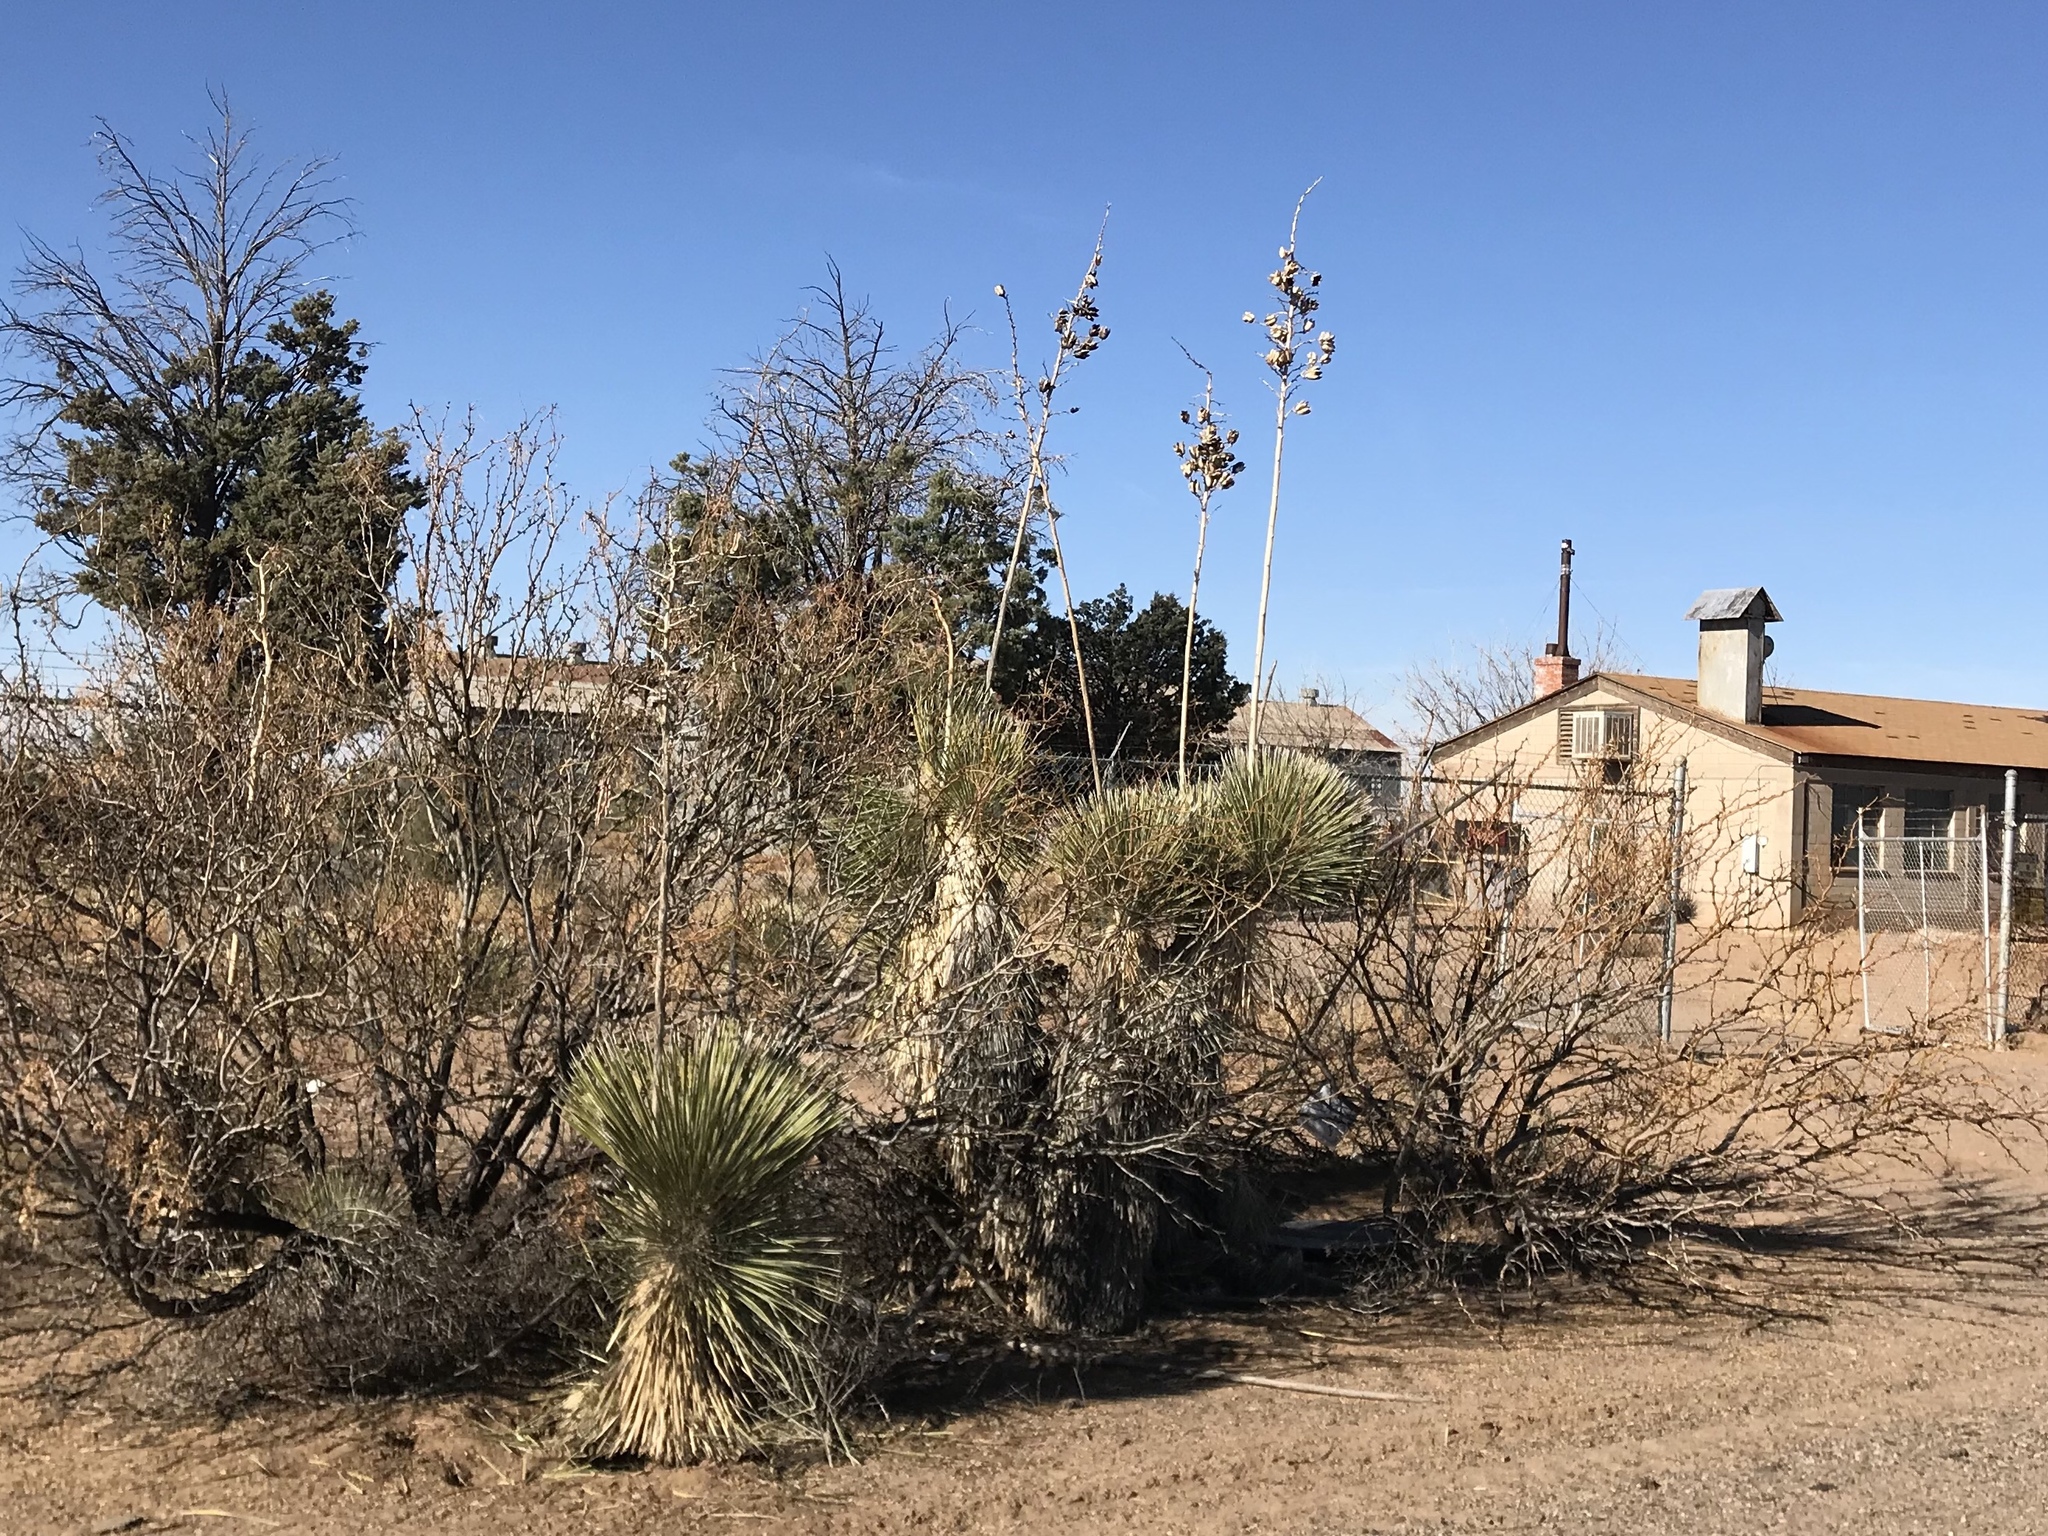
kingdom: Plantae
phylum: Tracheophyta
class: Liliopsida
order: Asparagales
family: Asparagaceae
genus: Yucca
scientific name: Yucca elata
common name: Palmella
